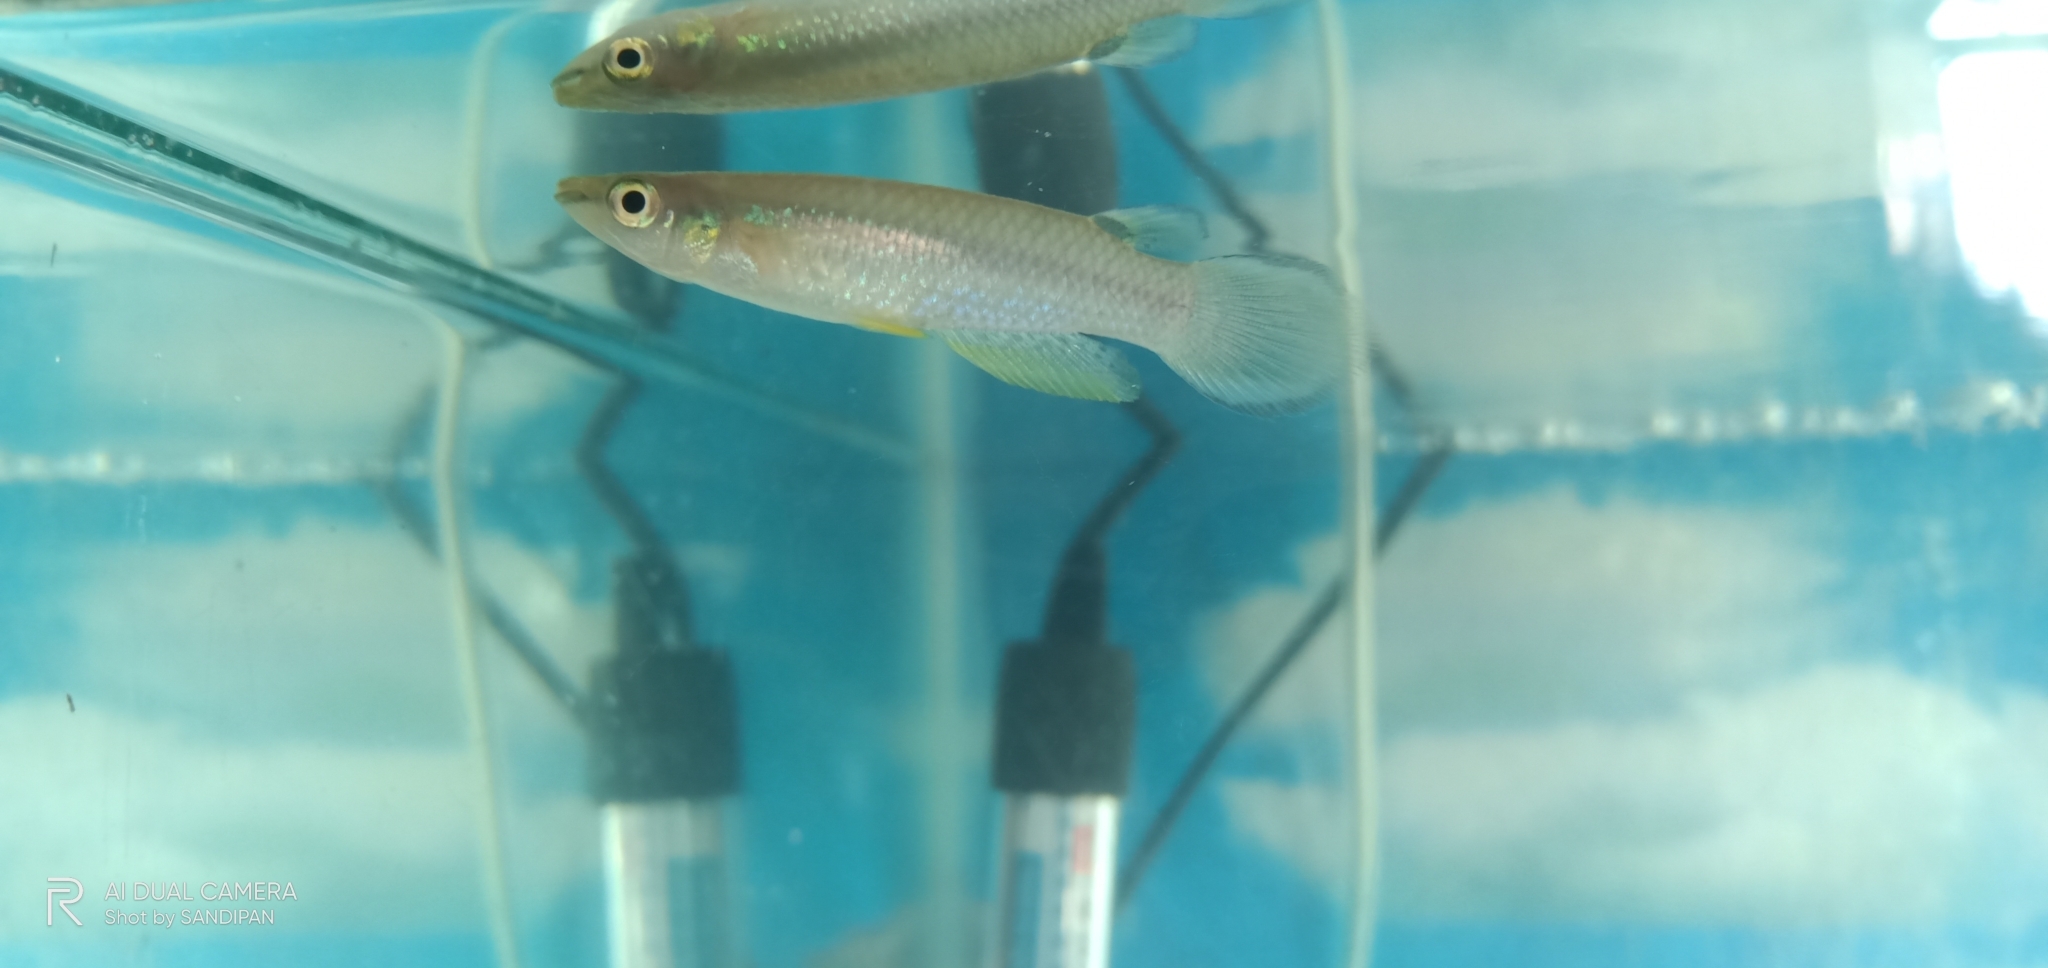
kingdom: Animalia
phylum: Chordata
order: Cyprinodontiformes
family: Aplocheilidae
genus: Aplocheilus
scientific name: Aplocheilus panchax
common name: Blue panchax
